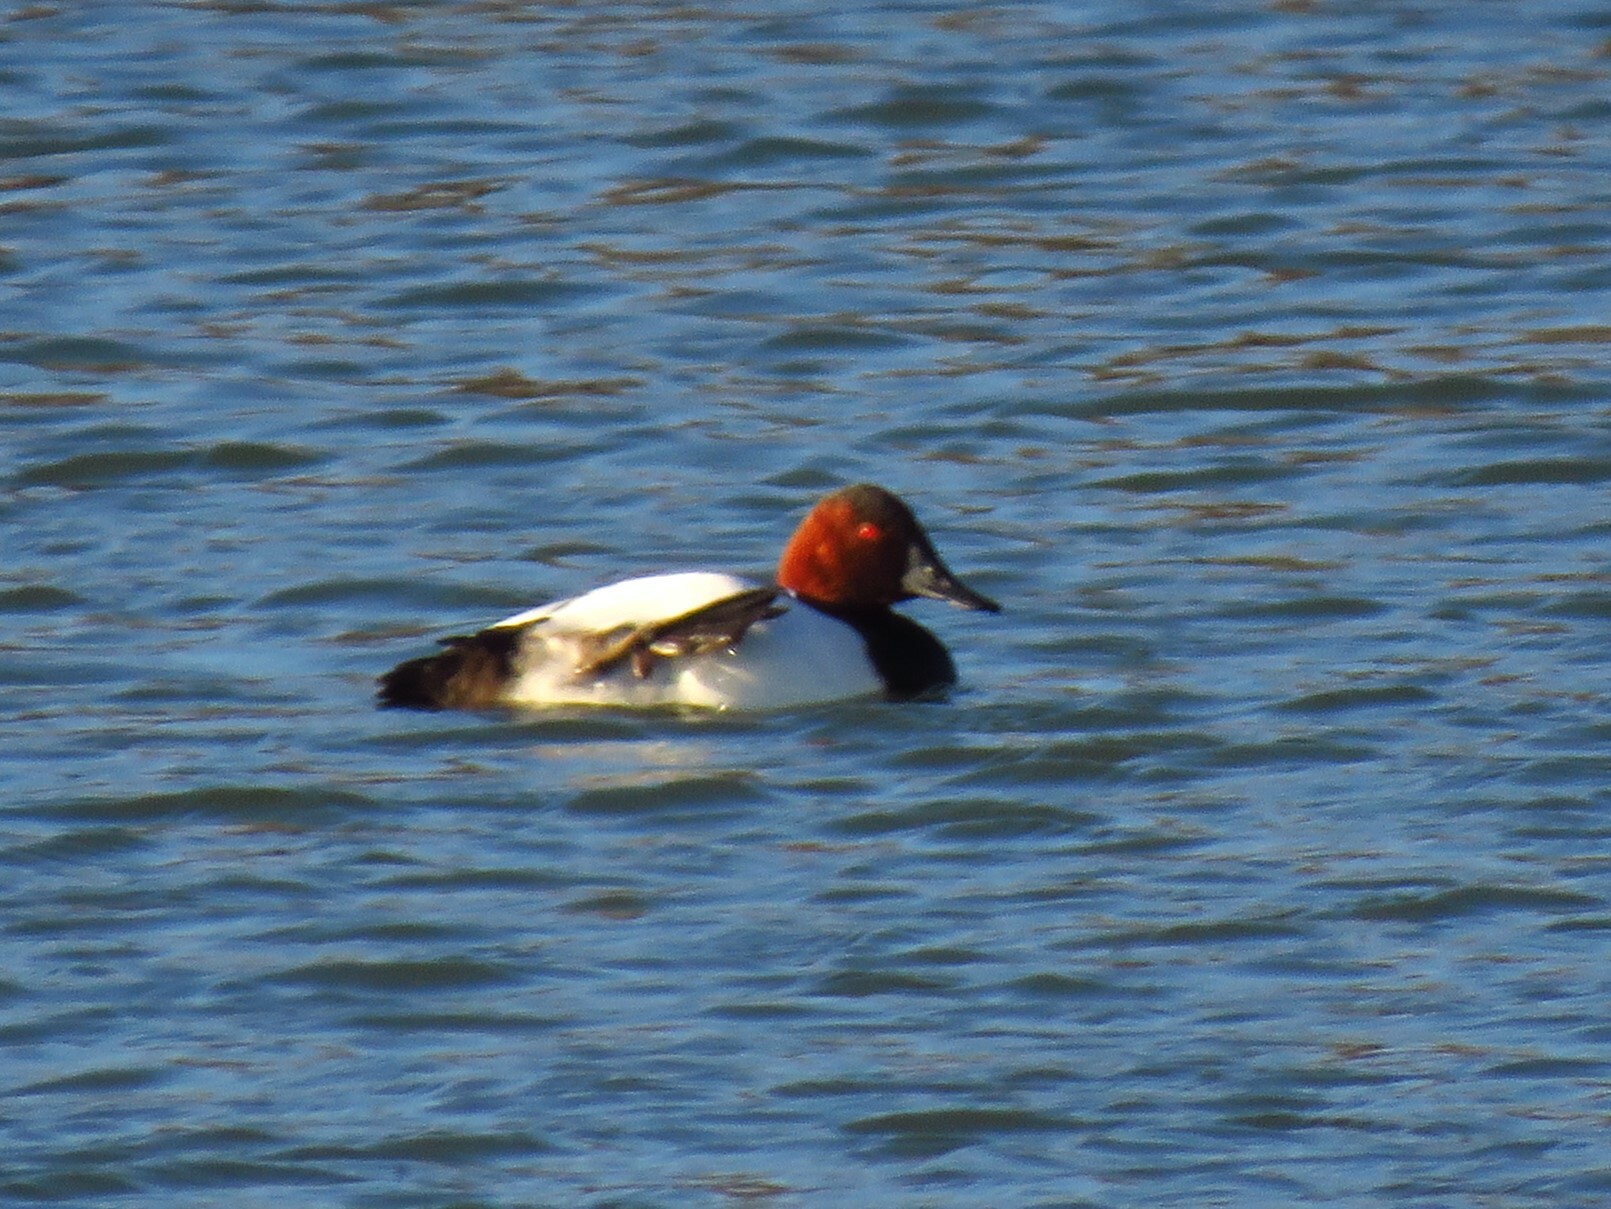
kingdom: Animalia
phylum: Chordata
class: Aves
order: Anseriformes
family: Anatidae
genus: Aythya
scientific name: Aythya valisineria
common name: Canvasback
